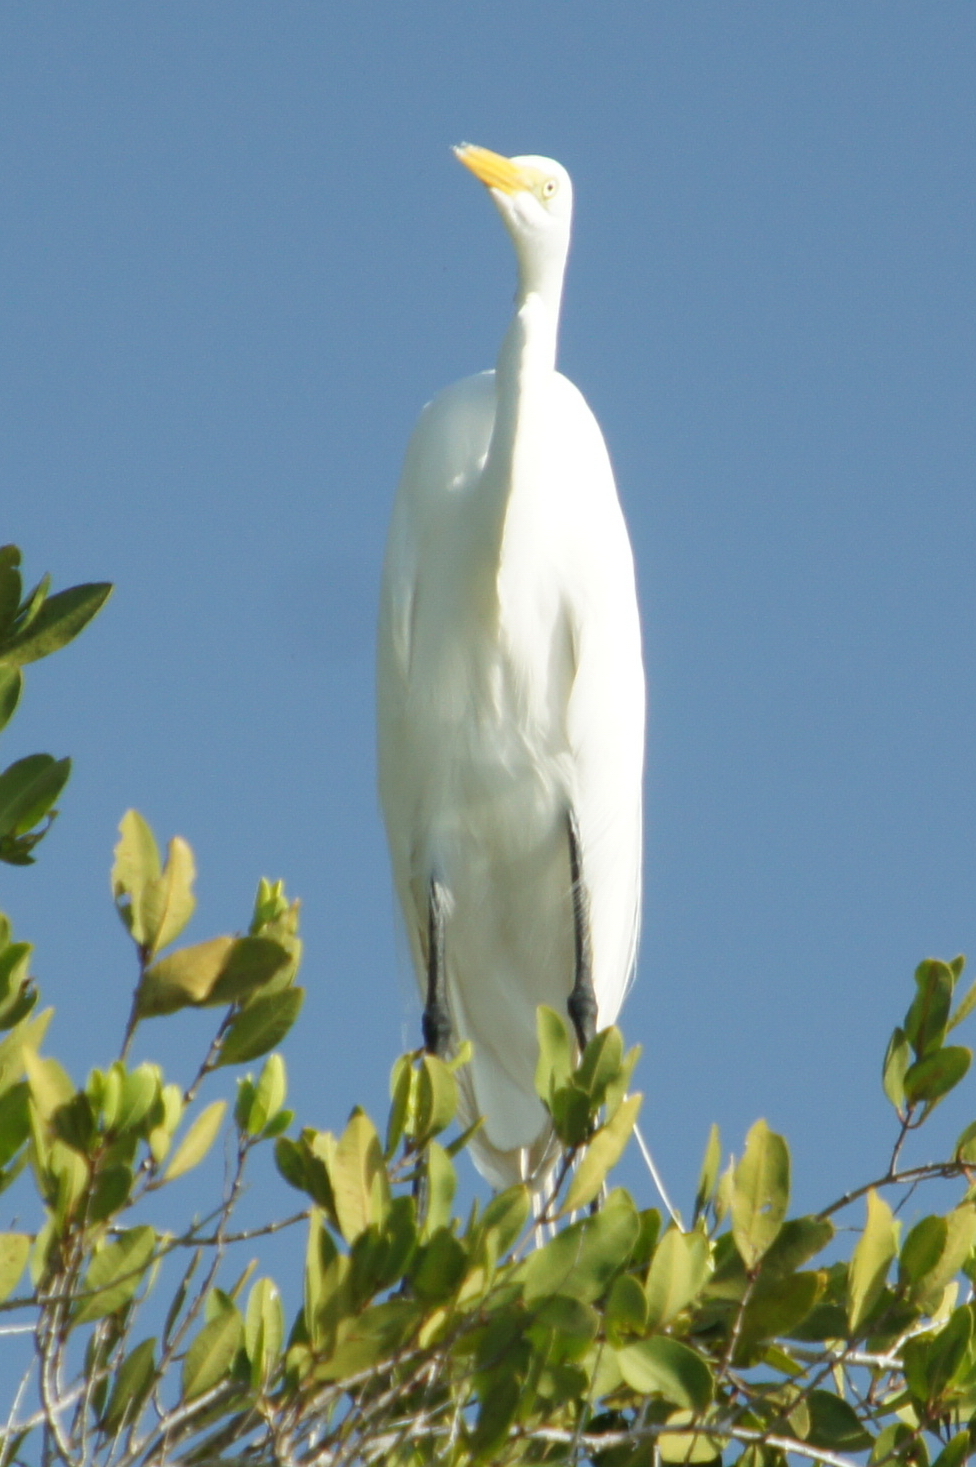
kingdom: Animalia
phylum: Chordata
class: Aves
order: Pelecaniformes
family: Ardeidae
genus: Ardea
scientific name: Ardea alba
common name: Great egret
